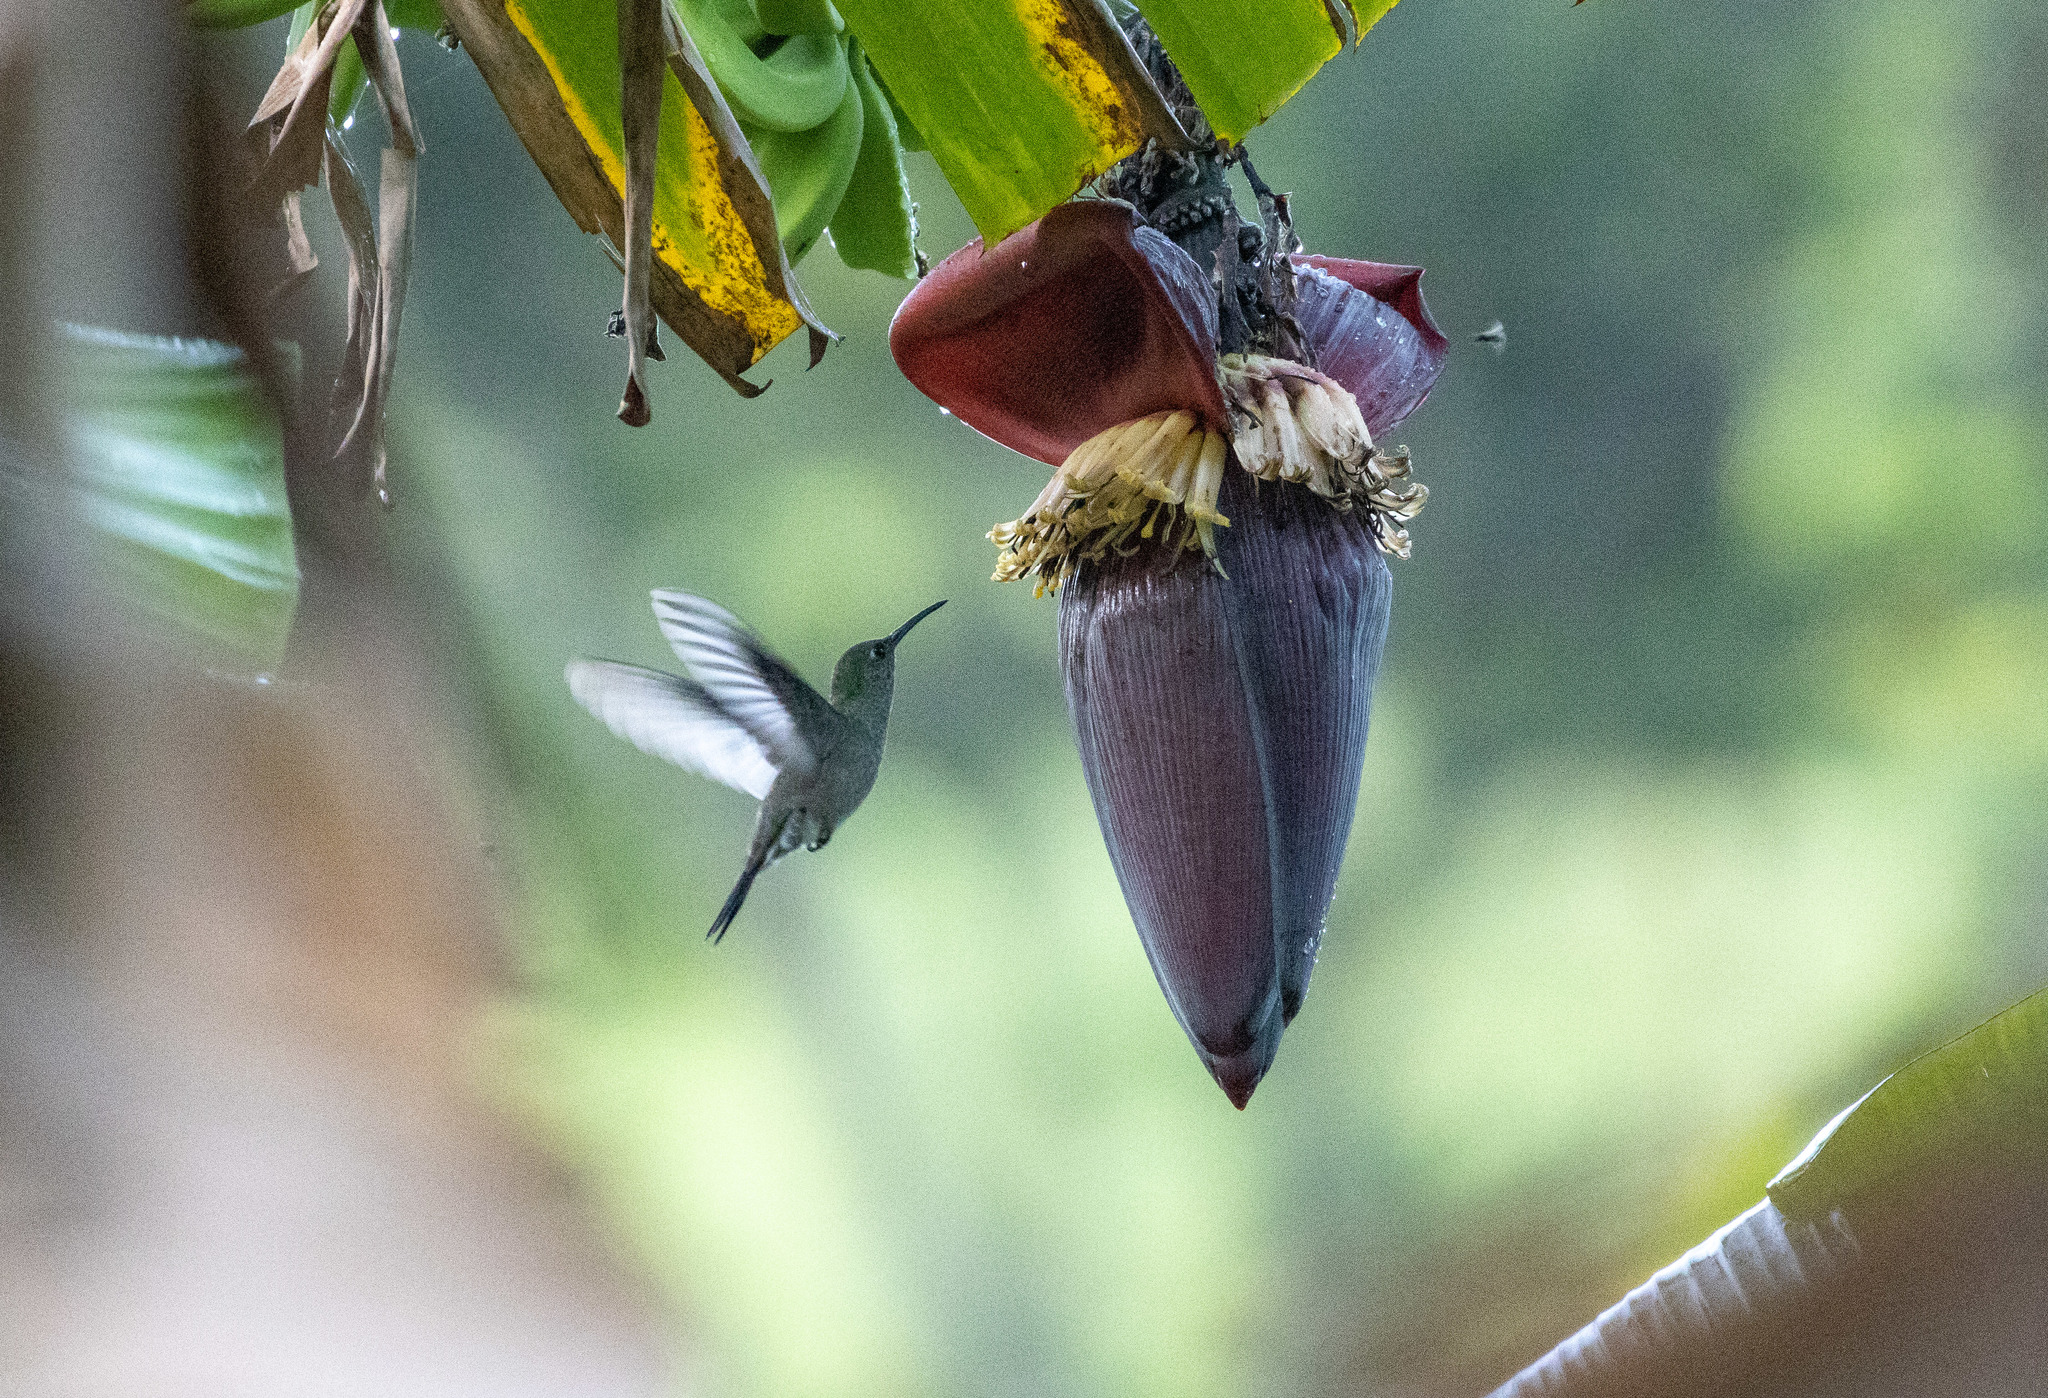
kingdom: Animalia
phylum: Chordata
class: Aves
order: Apodiformes
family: Trochilidae
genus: Eupetomena
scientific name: Eupetomena cirrochloris
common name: Sombre hummingbird
